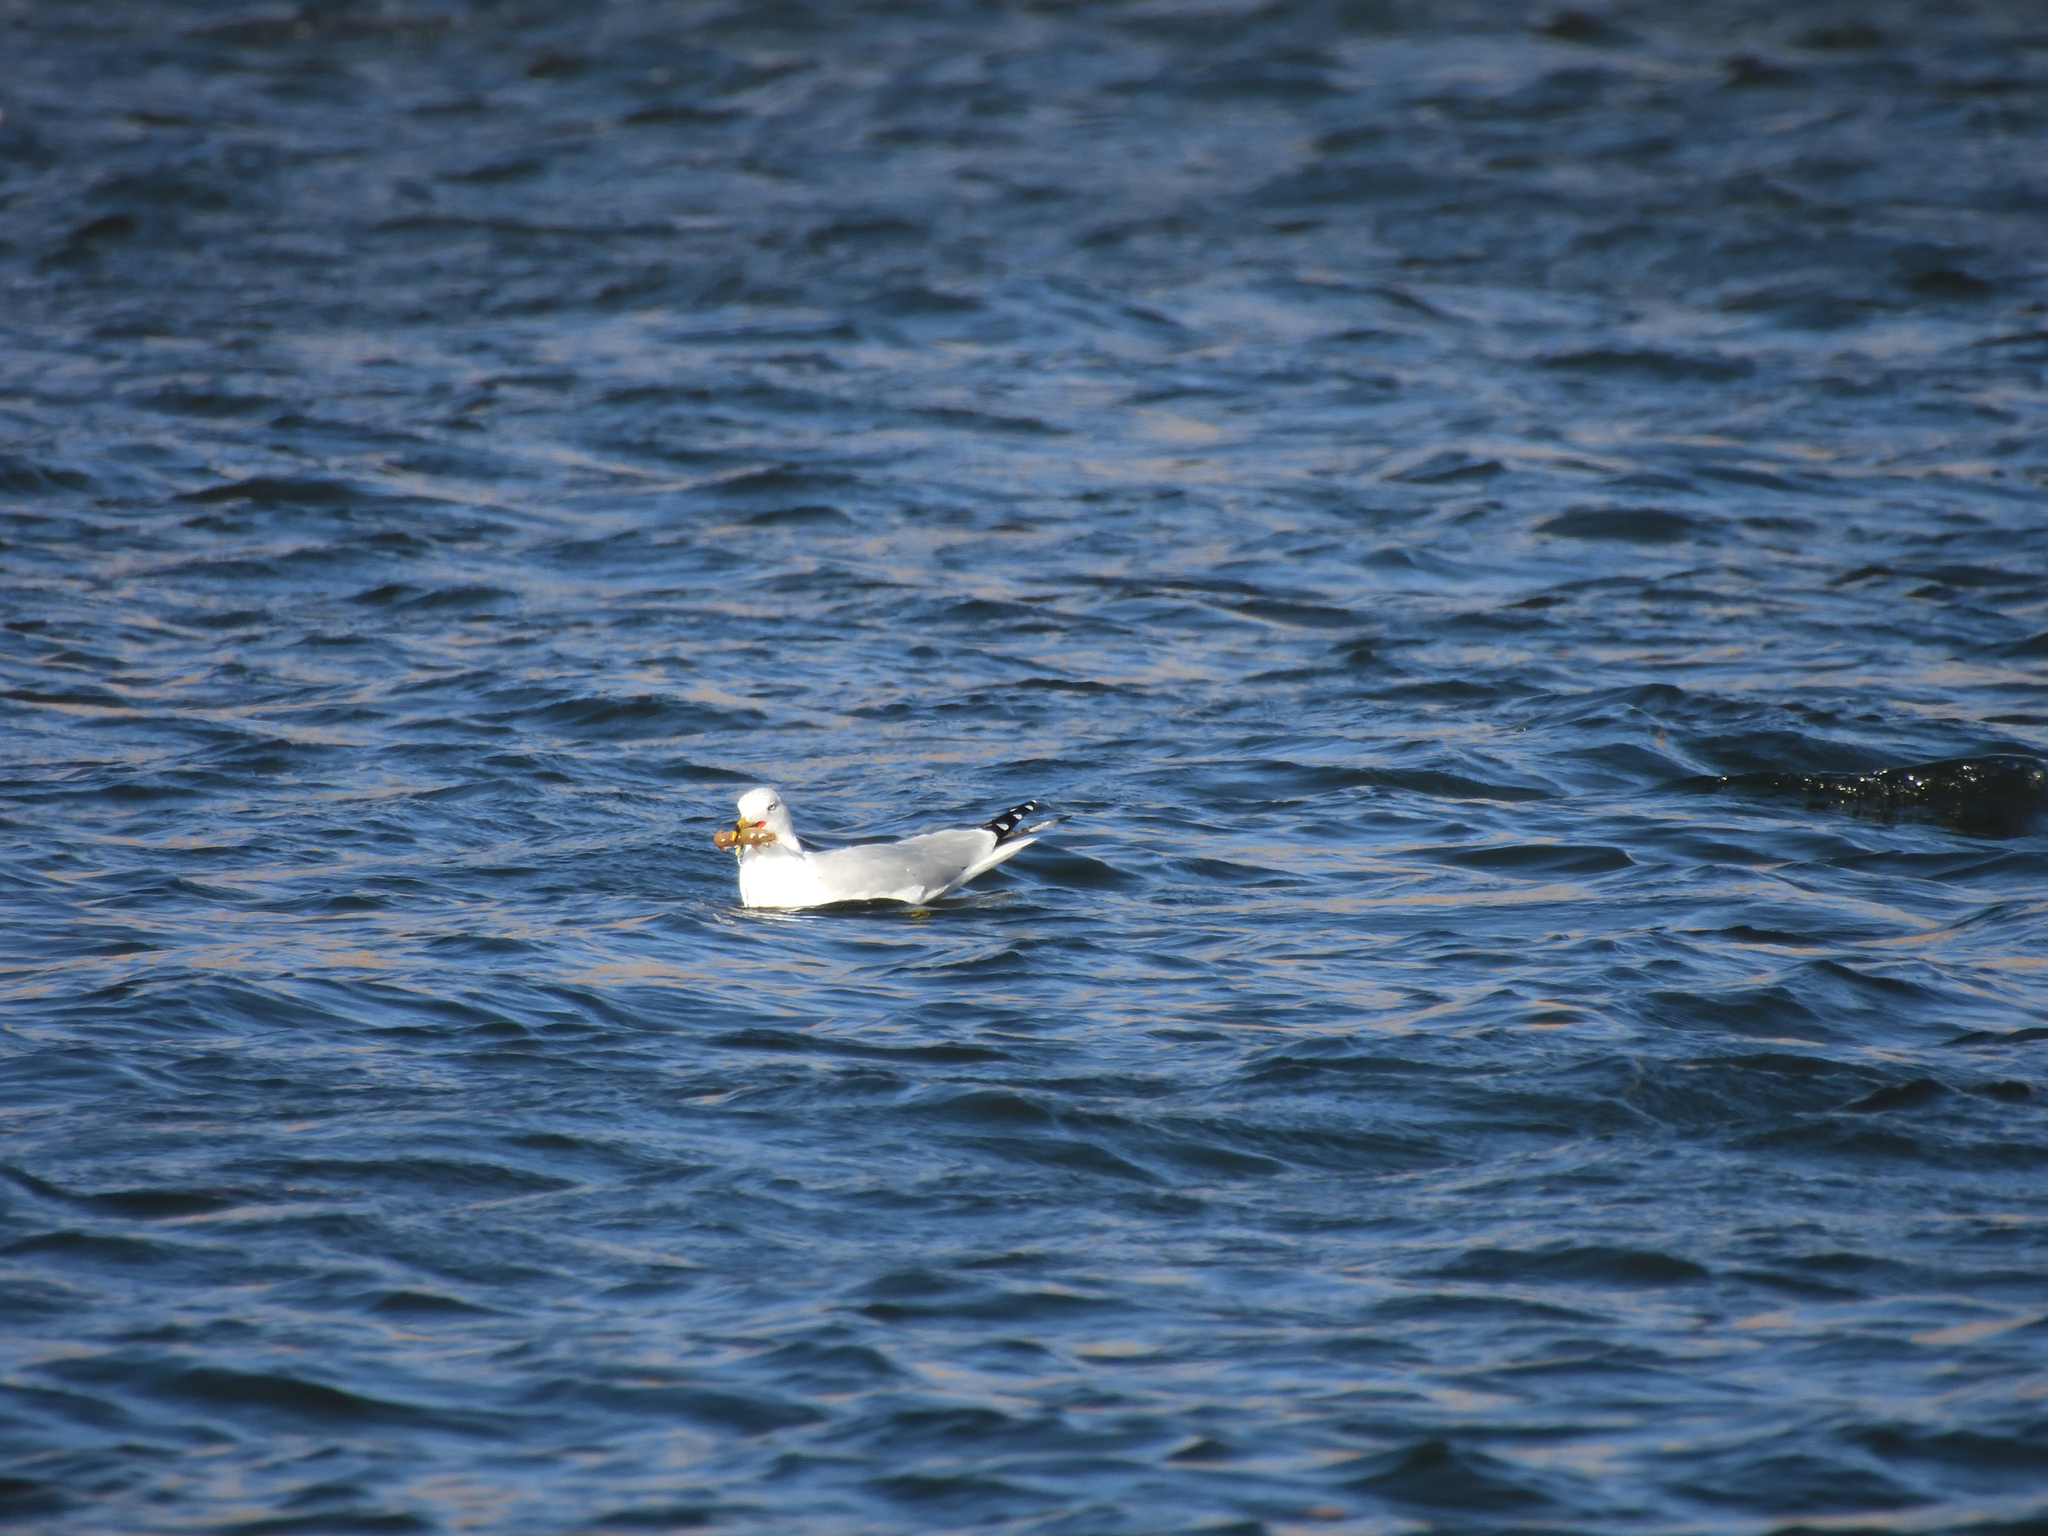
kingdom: Animalia
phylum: Chordata
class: Aves
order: Charadriiformes
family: Laridae
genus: Larus
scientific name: Larus delawarensis
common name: Ring-billed gull
